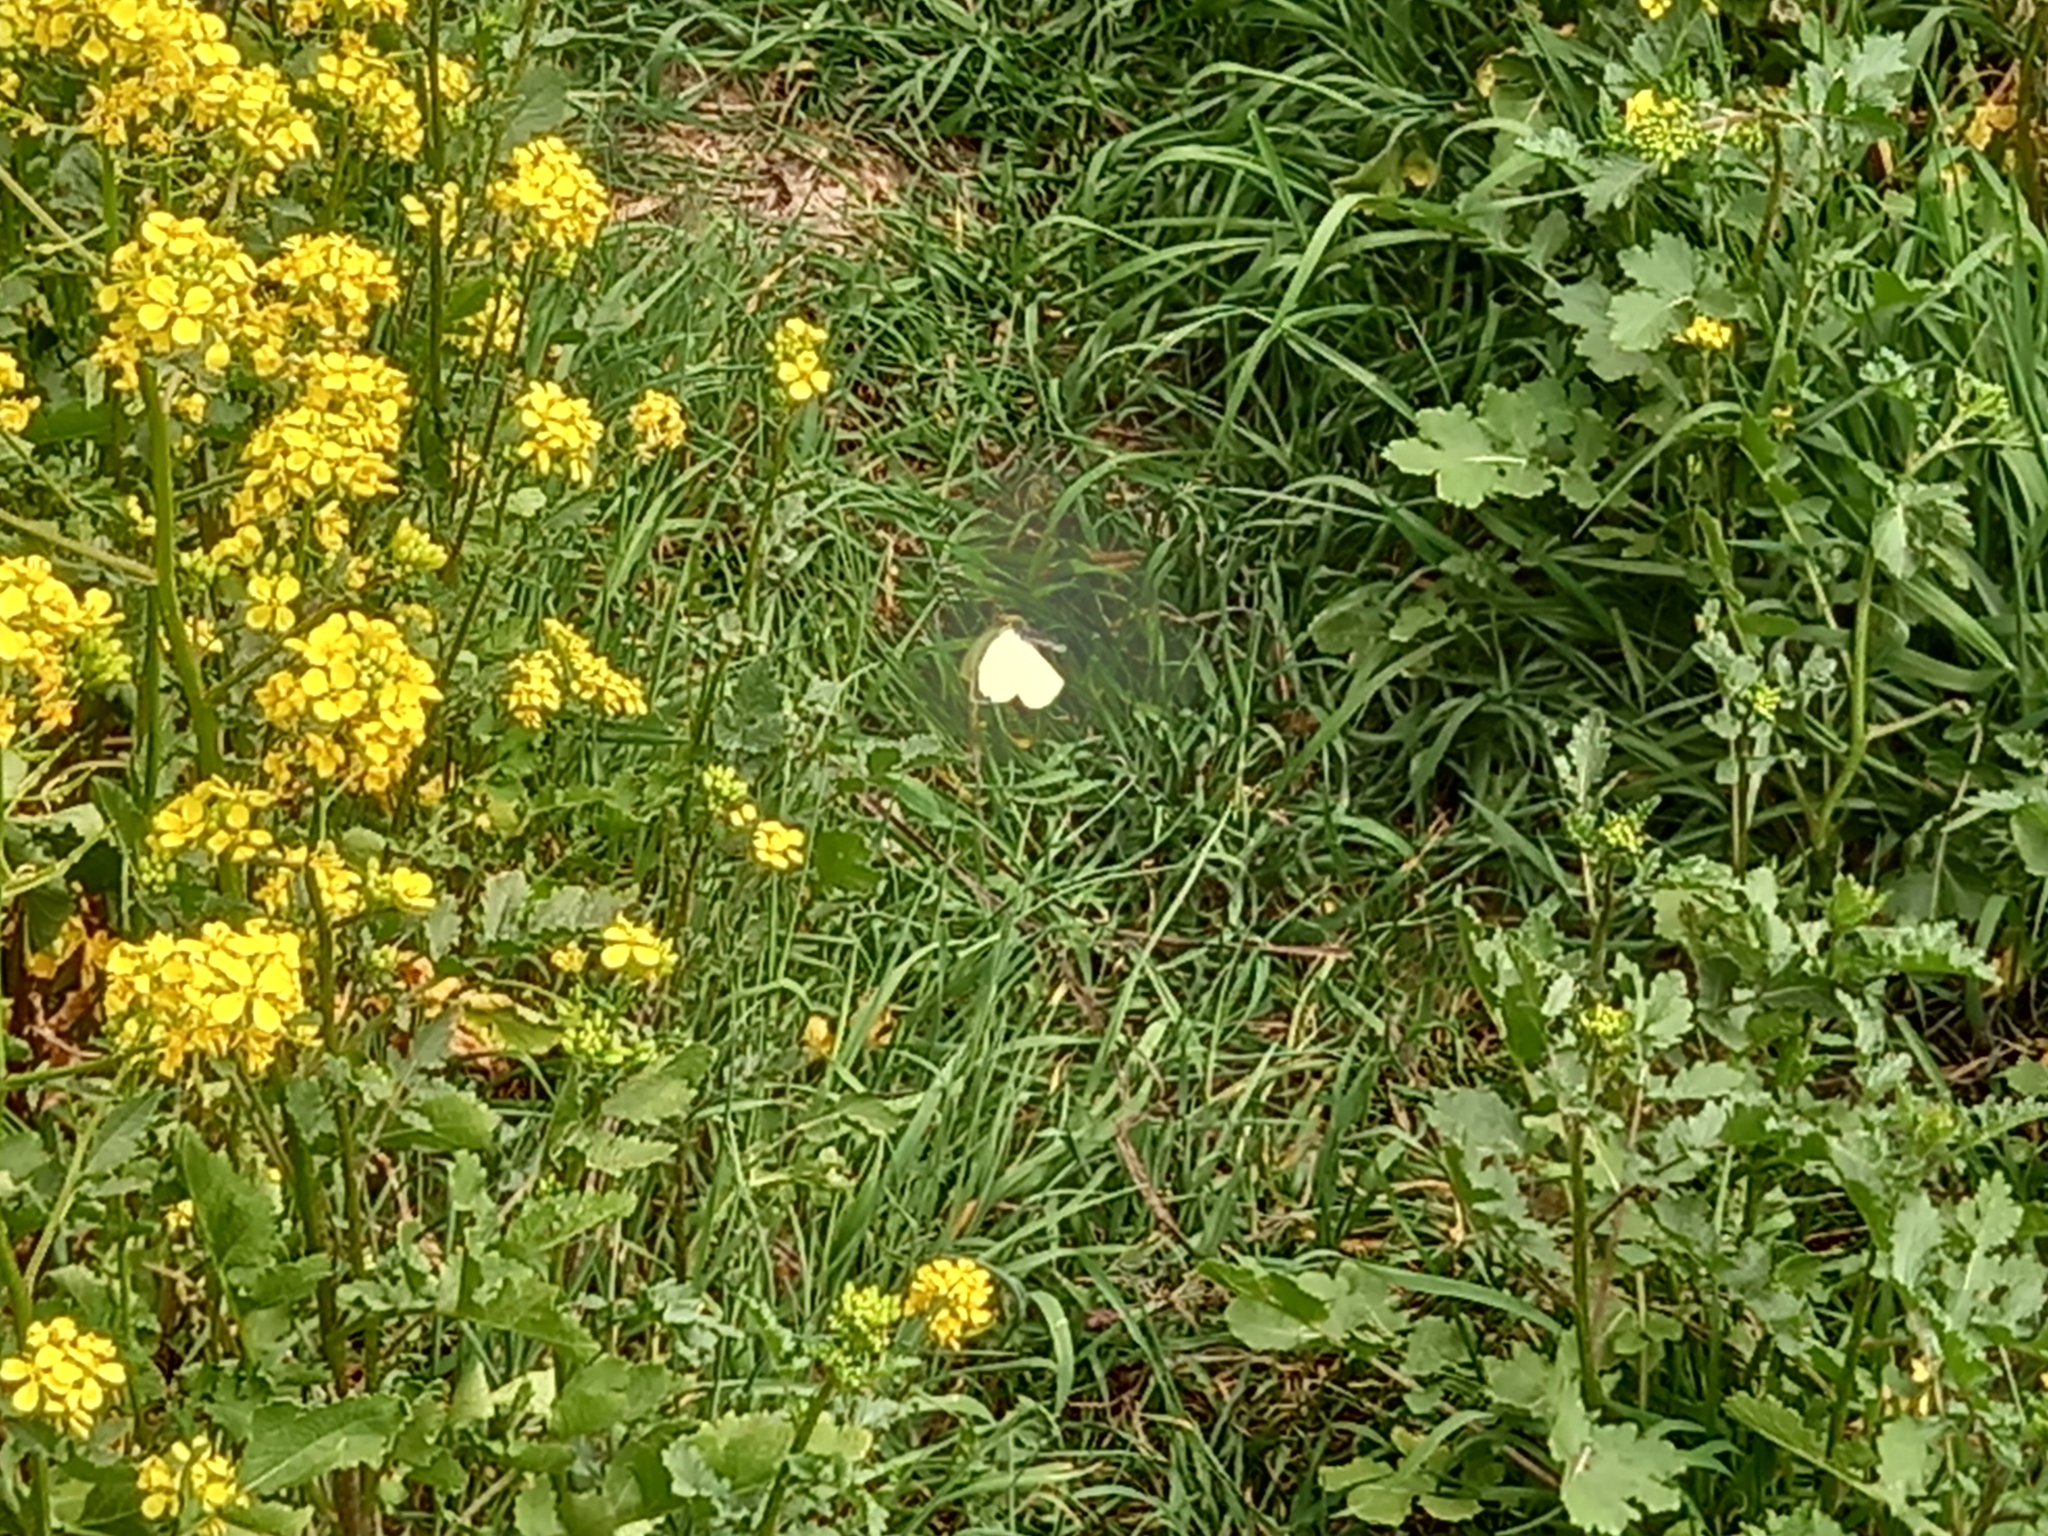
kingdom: Animalia
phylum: Arthropoda
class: Insecta
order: Lepidoptera
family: Pieridae
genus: Pieris
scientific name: Pieris brassicae
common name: Large white
